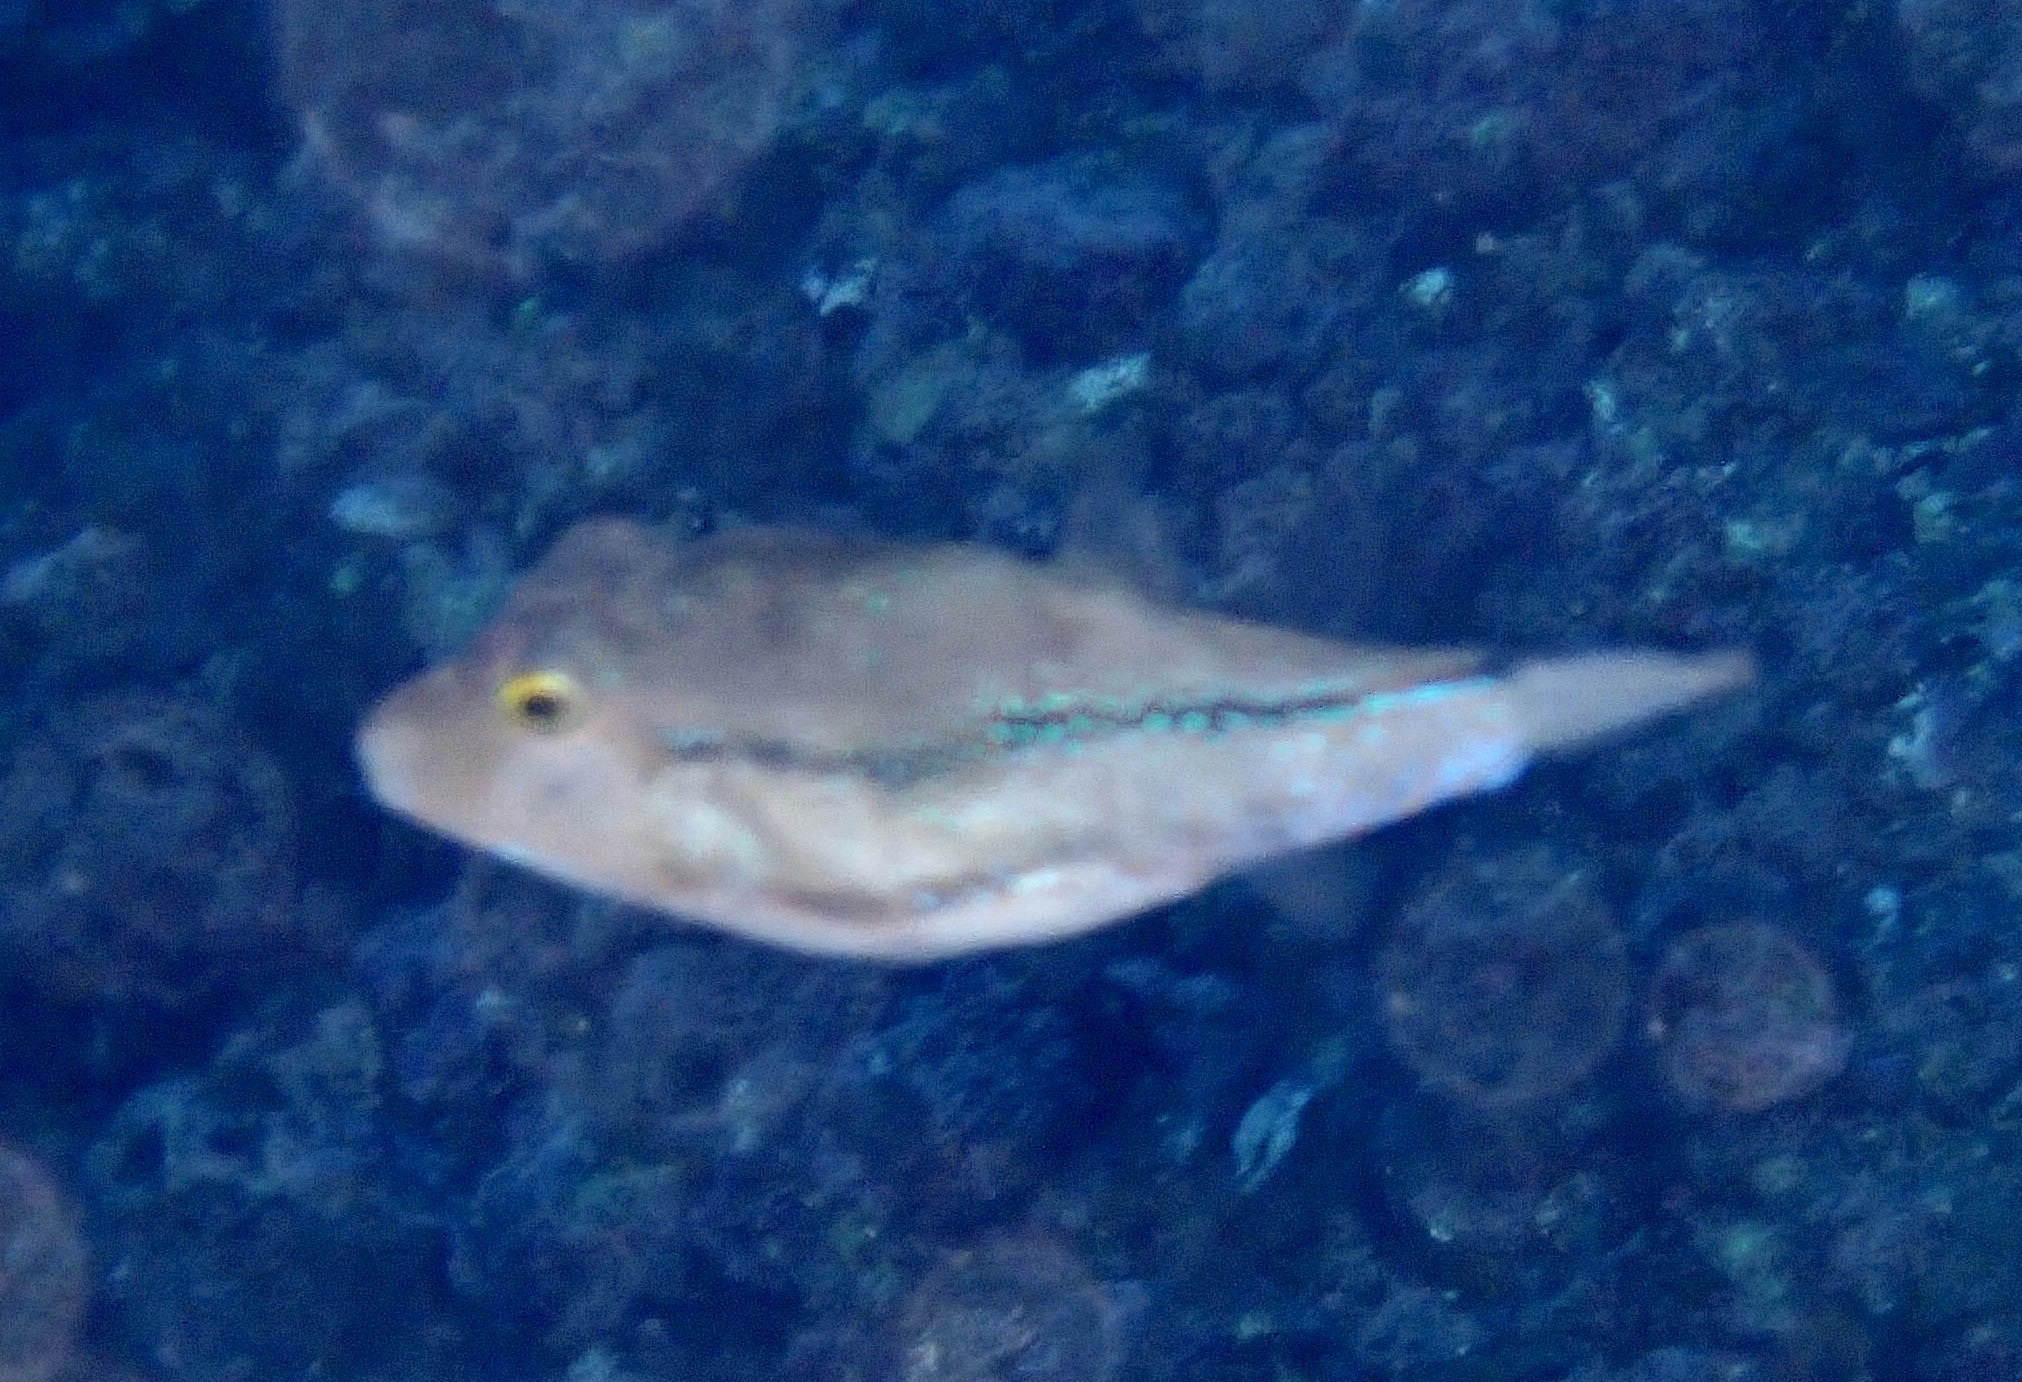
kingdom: Animalia
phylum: Chordata
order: Tetraodontiformes
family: Tetraodontidae
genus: Canthigaster
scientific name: Canthigaster capistrata
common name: Macaronesian sharpnose-puffer
